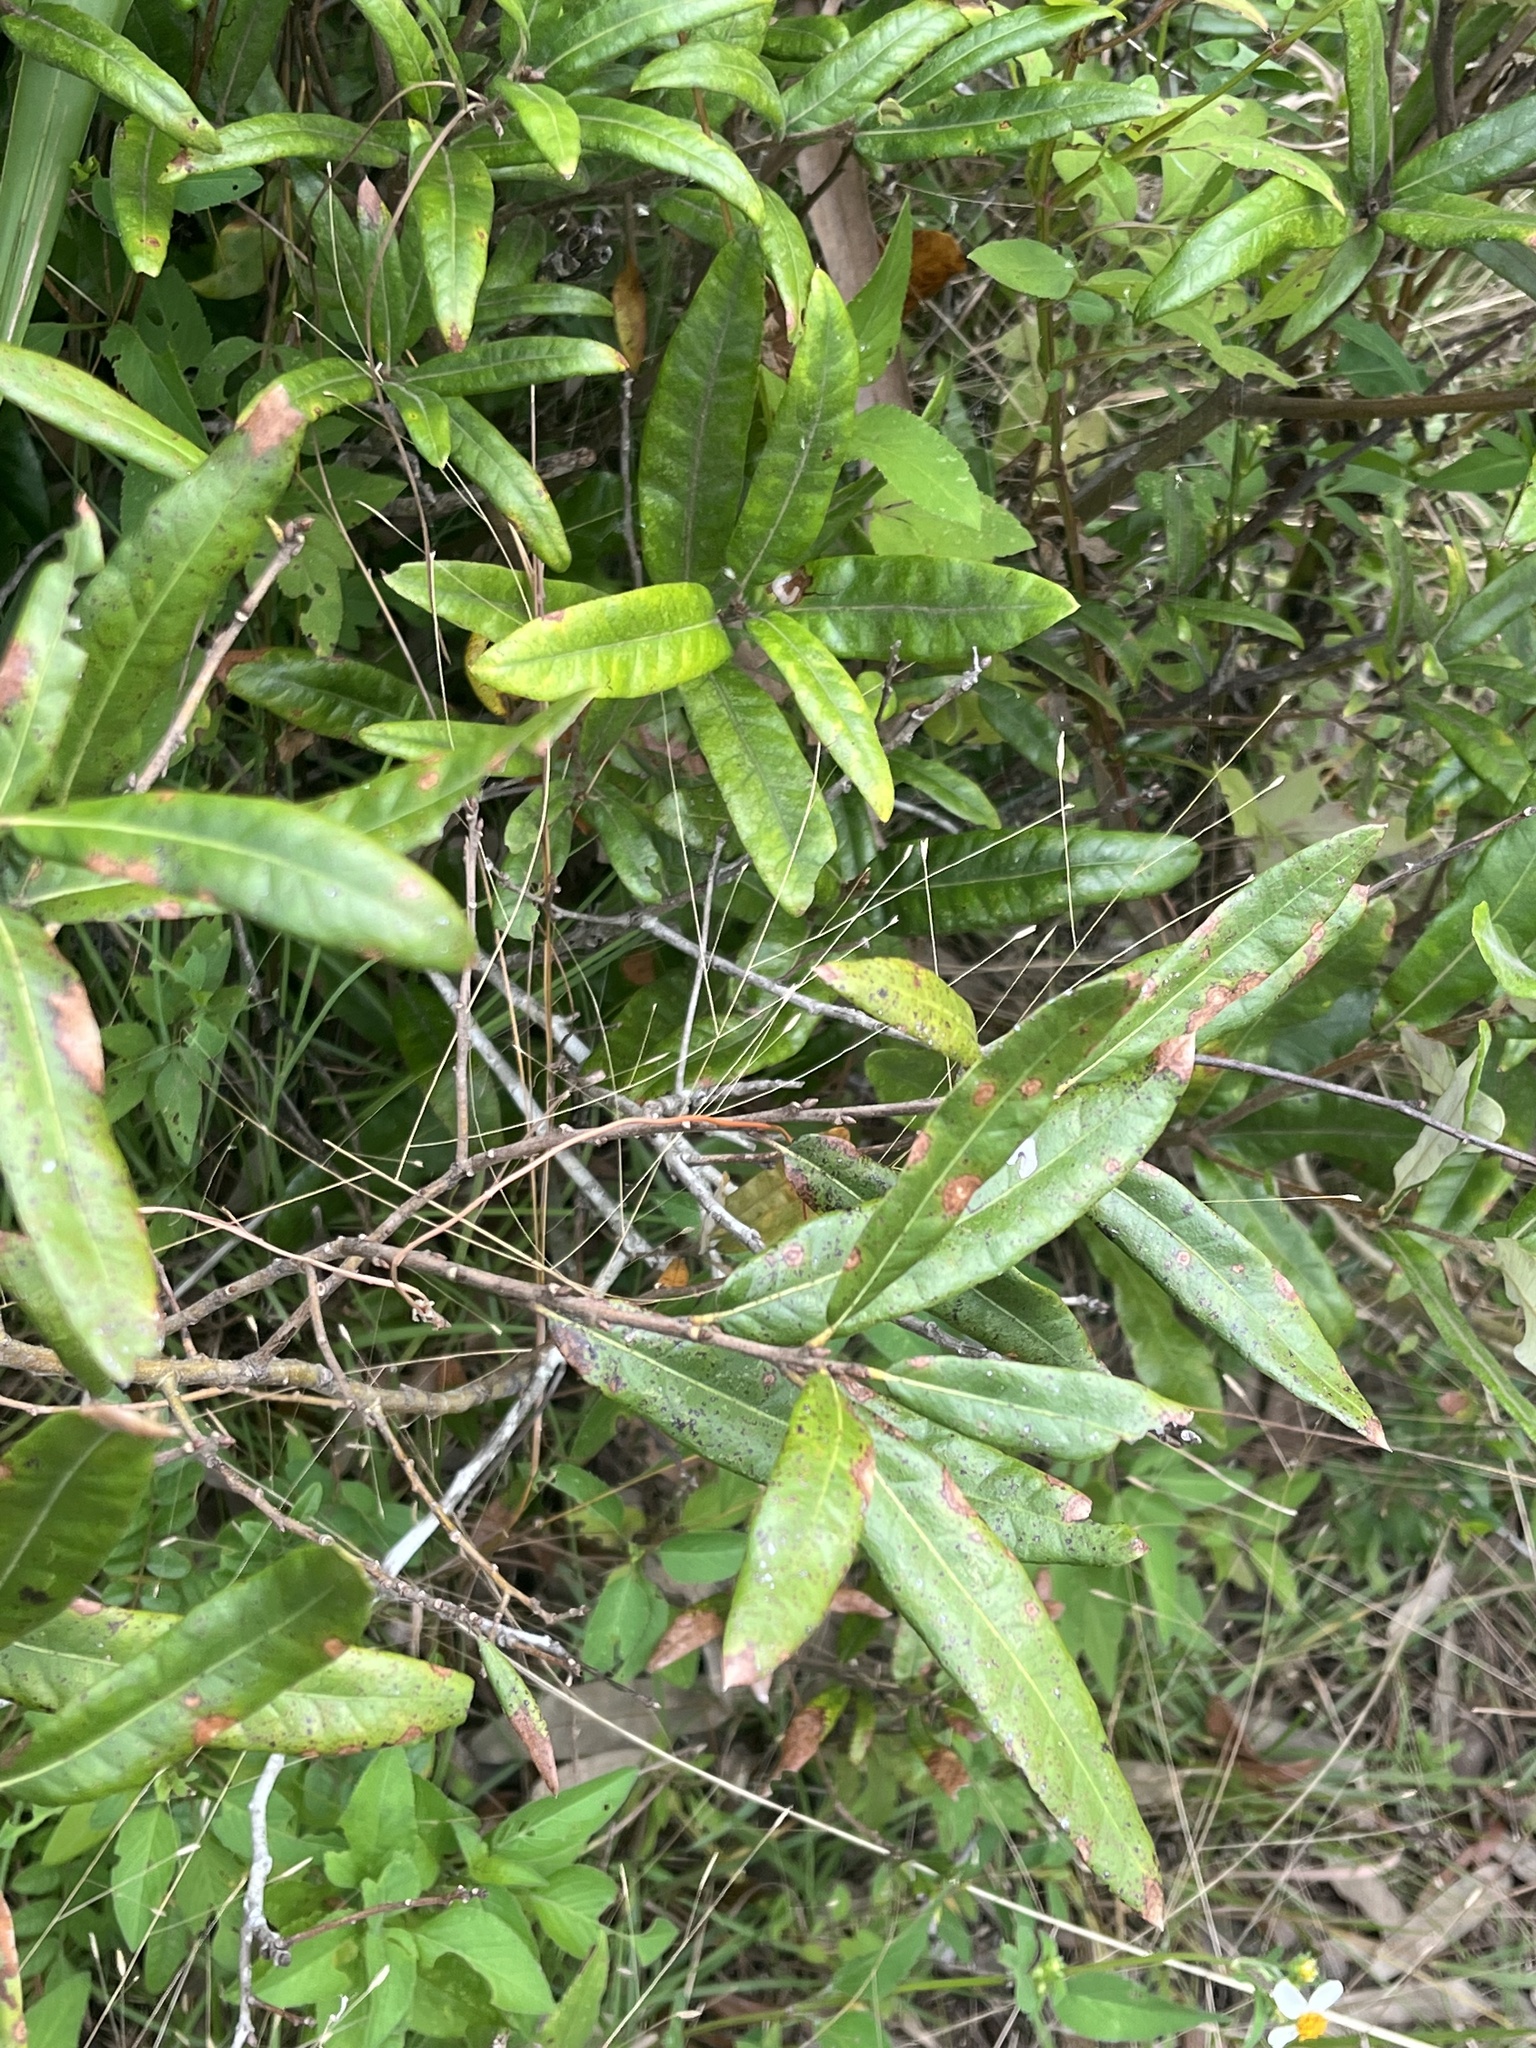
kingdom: Plantae
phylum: Tracheophyta
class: Magnoliopsida
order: Fagales
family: Fagaceae
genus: Quercus
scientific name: Quercus pumila
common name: Runner oak
